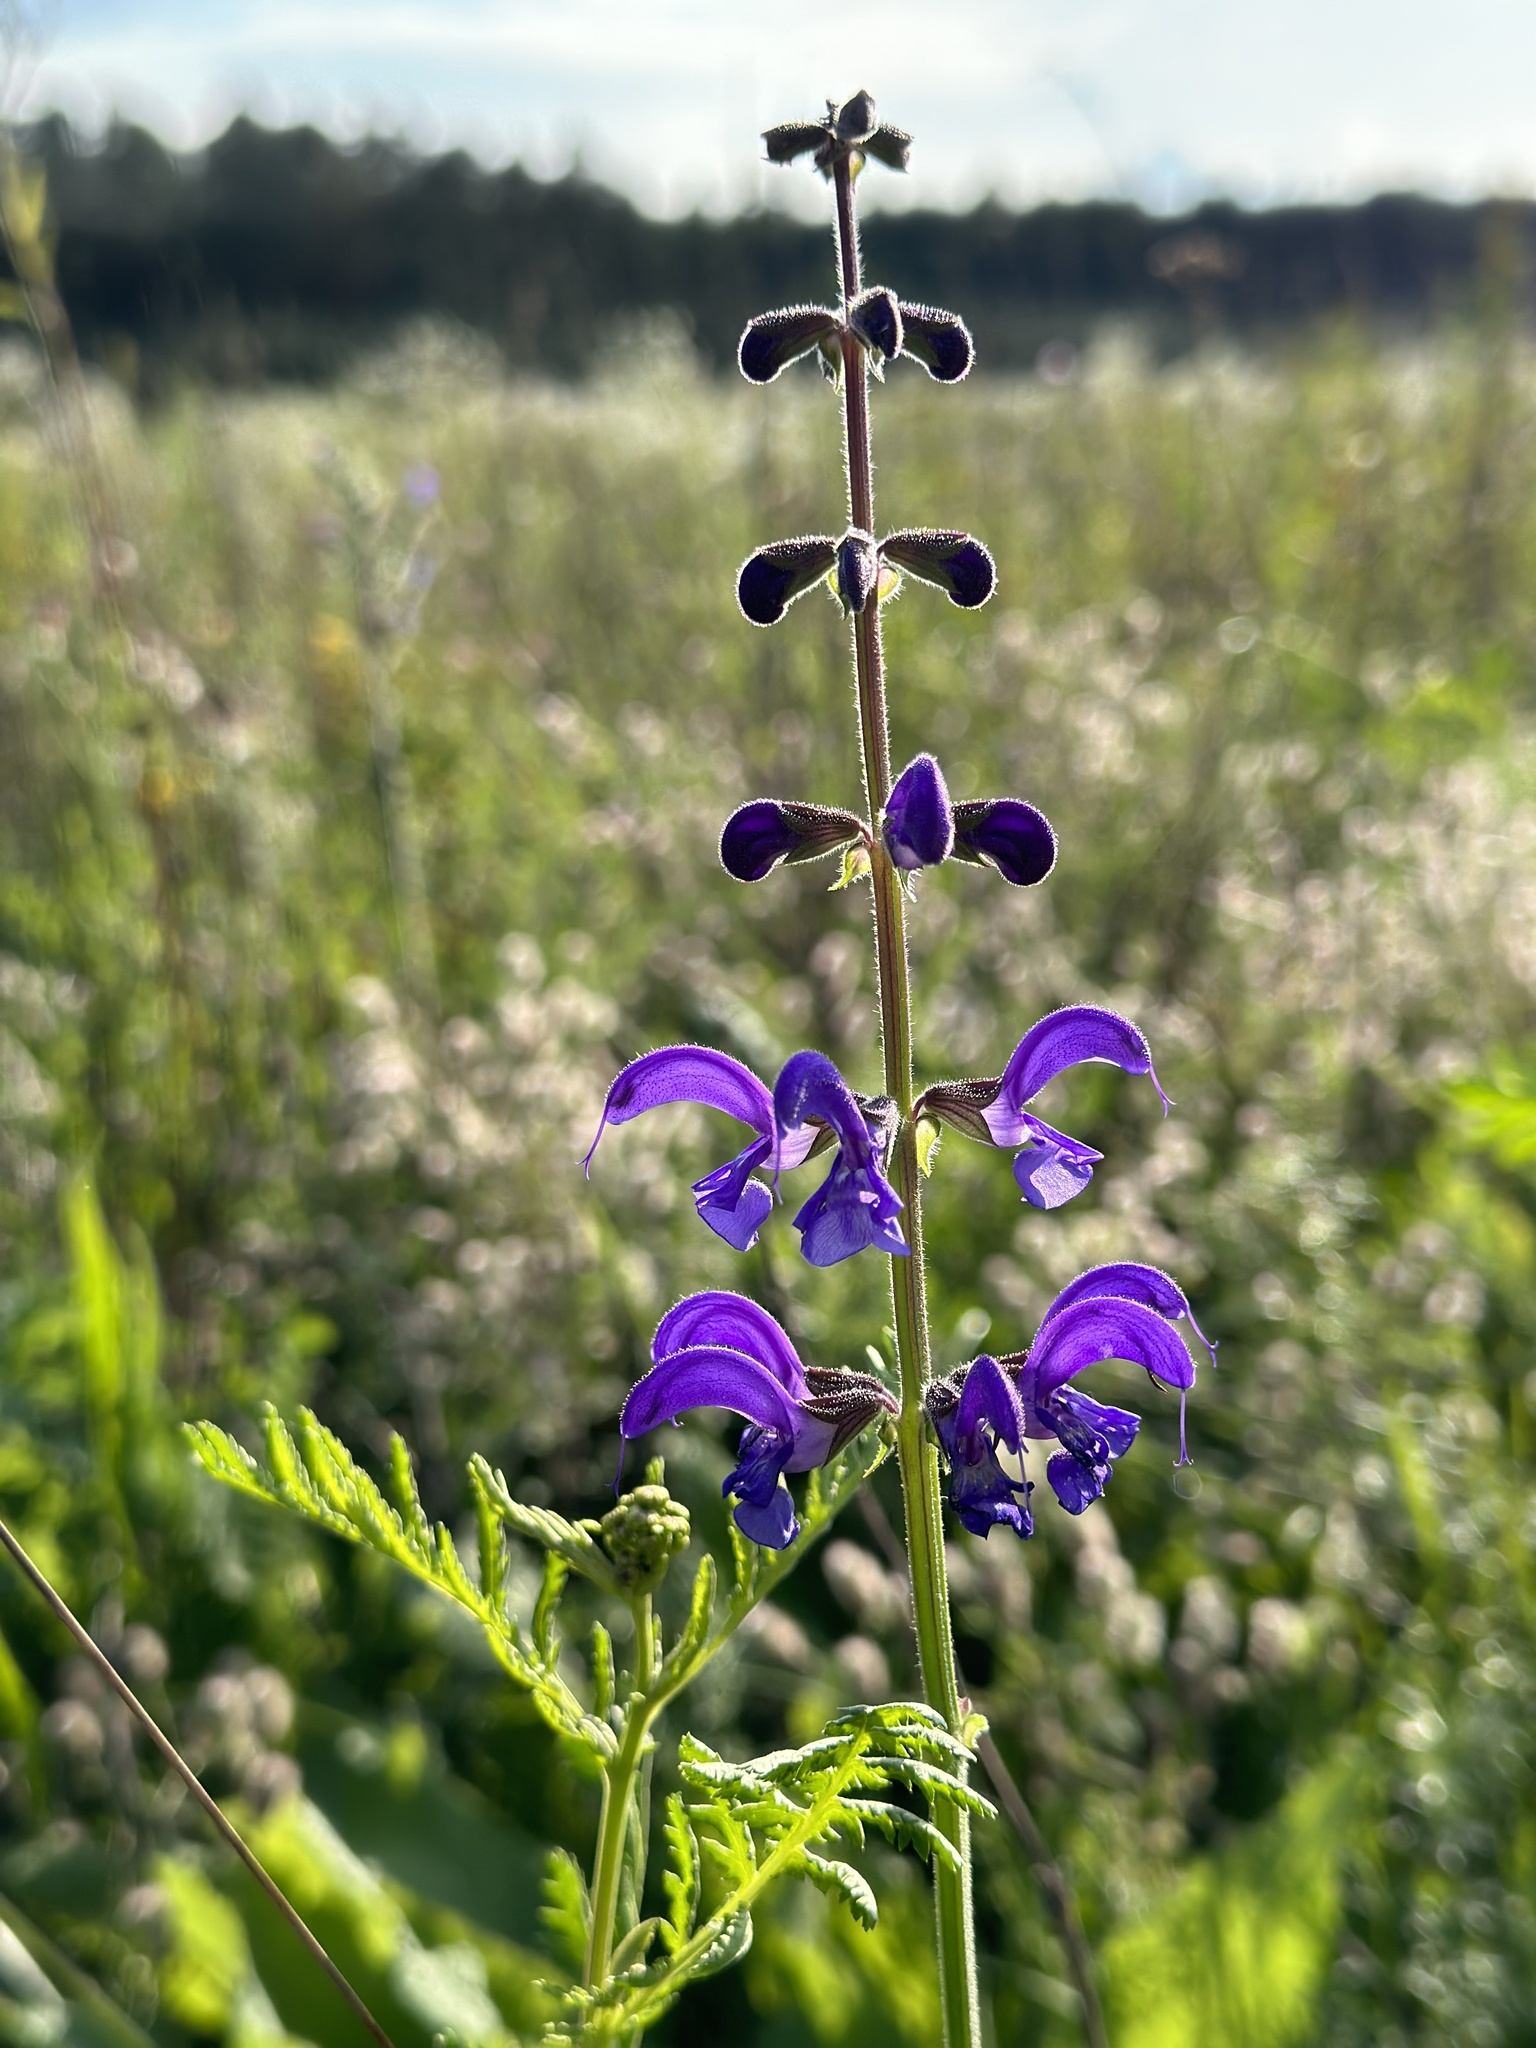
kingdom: Plantae
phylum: Tracheophyta
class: Magnoliopsida
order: Lamiales
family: Lamiaceae
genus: Salvia
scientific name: Salvia pratensis
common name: Meadow sage
